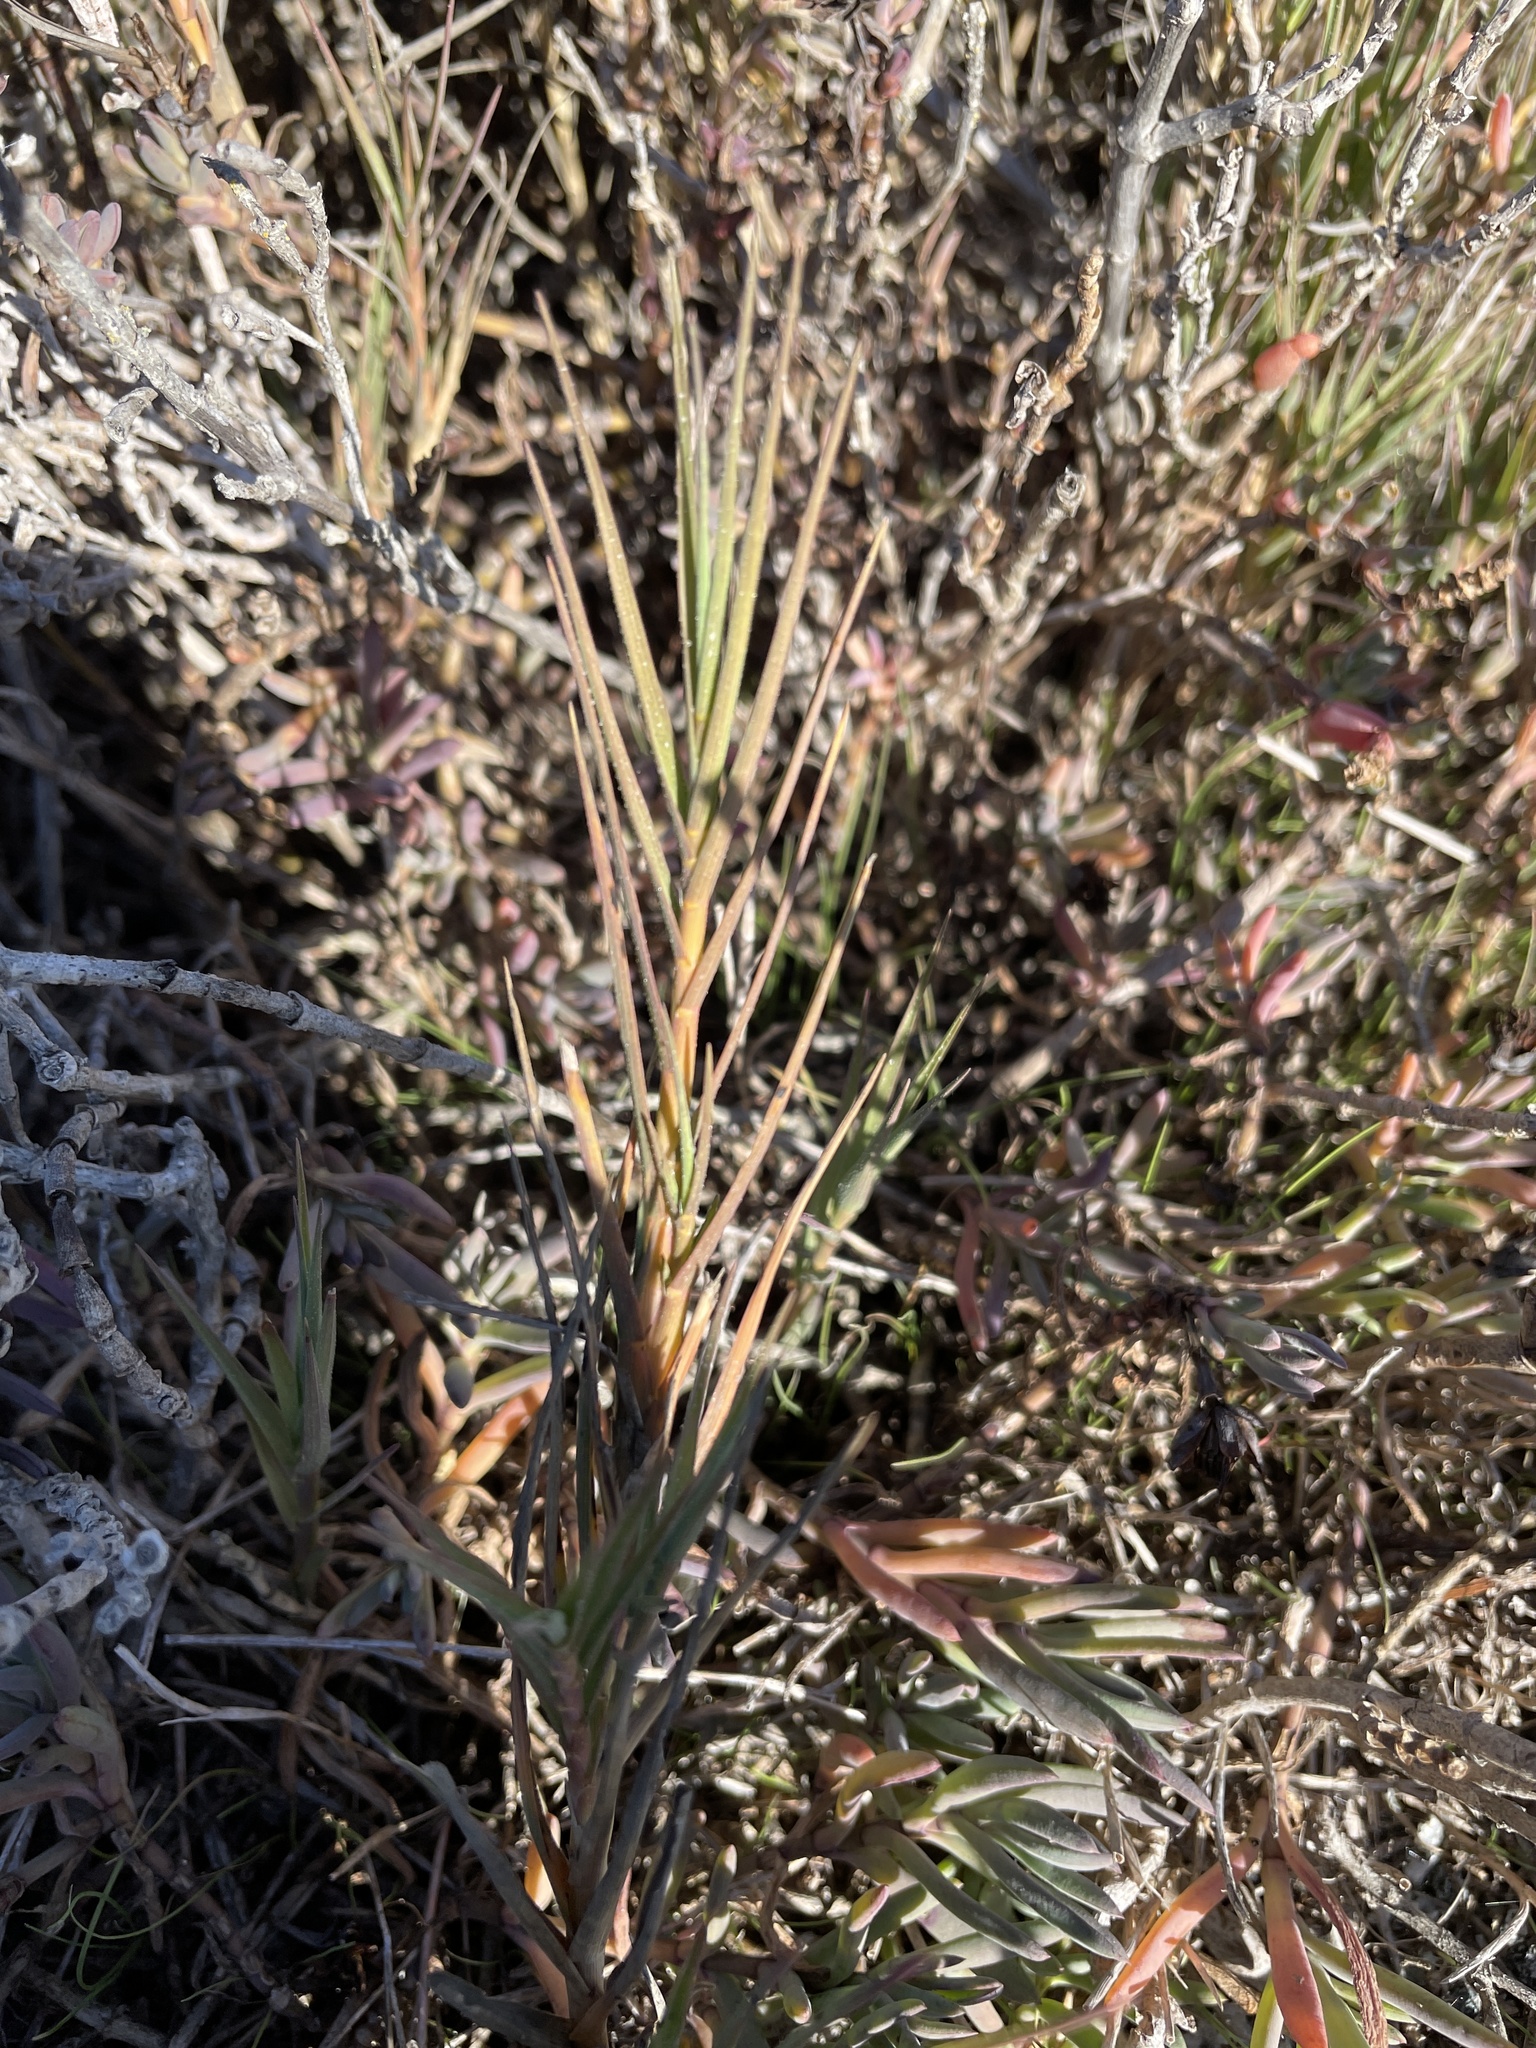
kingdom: Plantae
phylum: Tracheophyta
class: Liliopsida
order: Poales
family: Poaceae
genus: Distichlis
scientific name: Distichlis spicata
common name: Saltgrass
